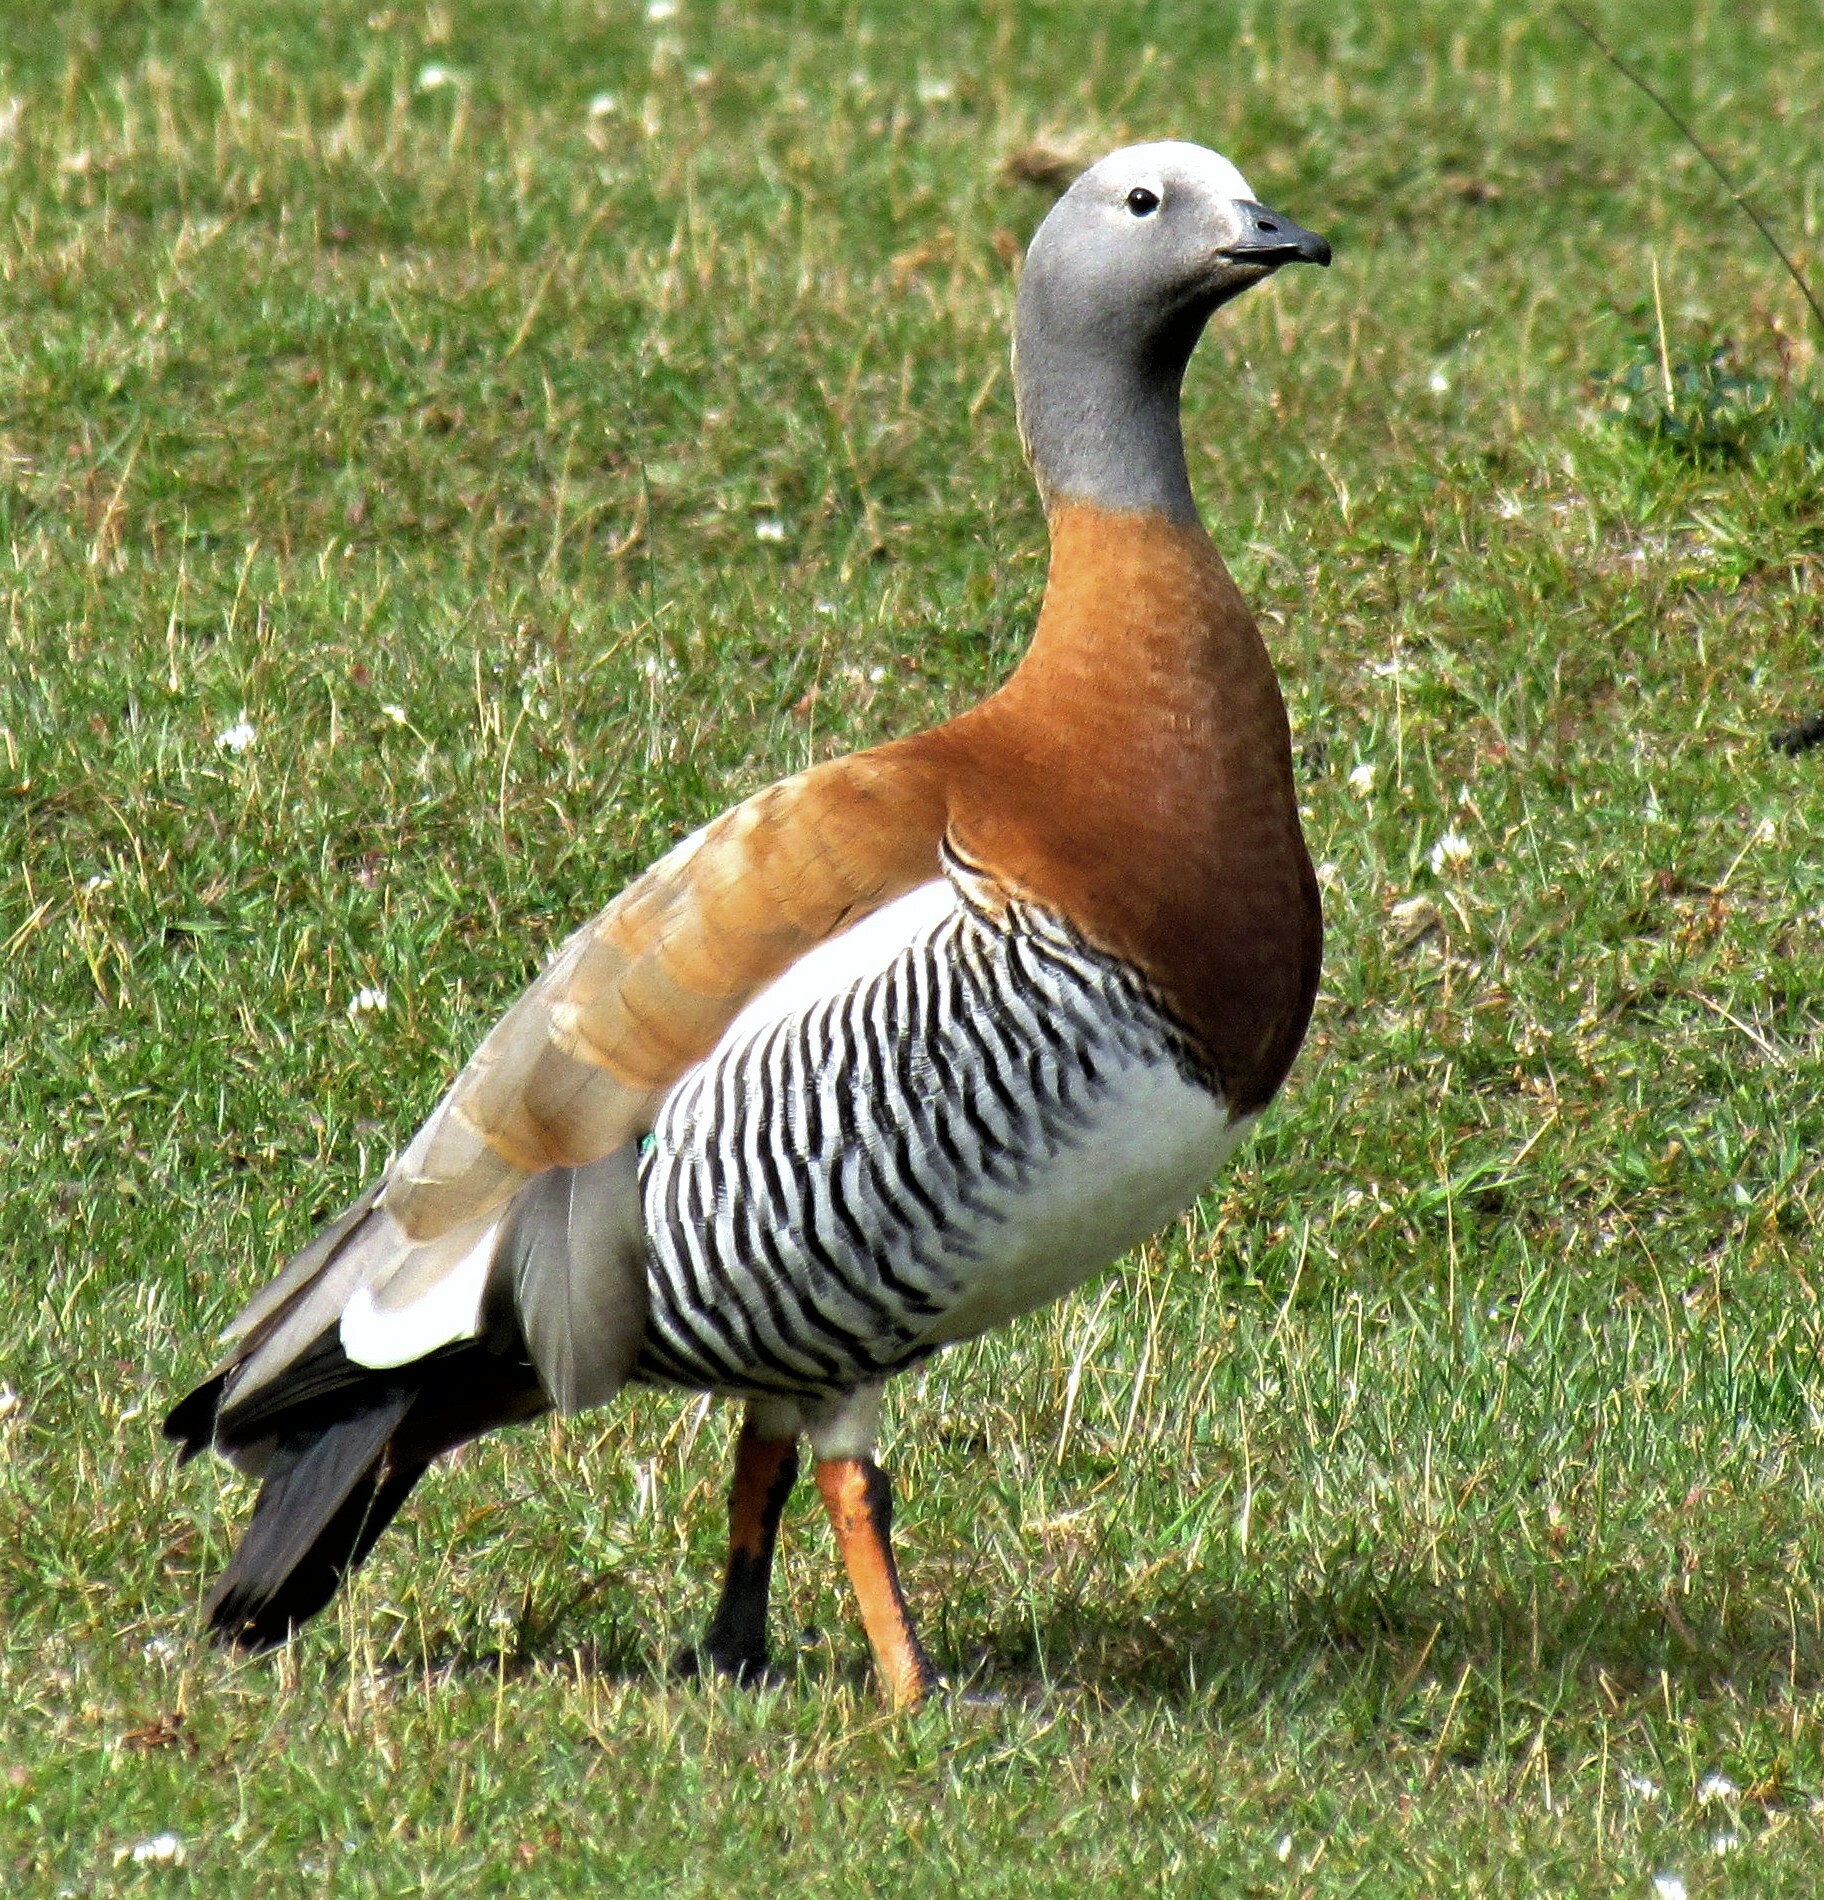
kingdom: Animalia
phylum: Chordata
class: Aves
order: Anseriformes
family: Anatidae
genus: Chloephaga
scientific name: Chloephaga poliocephala
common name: Ashy-headed goose
